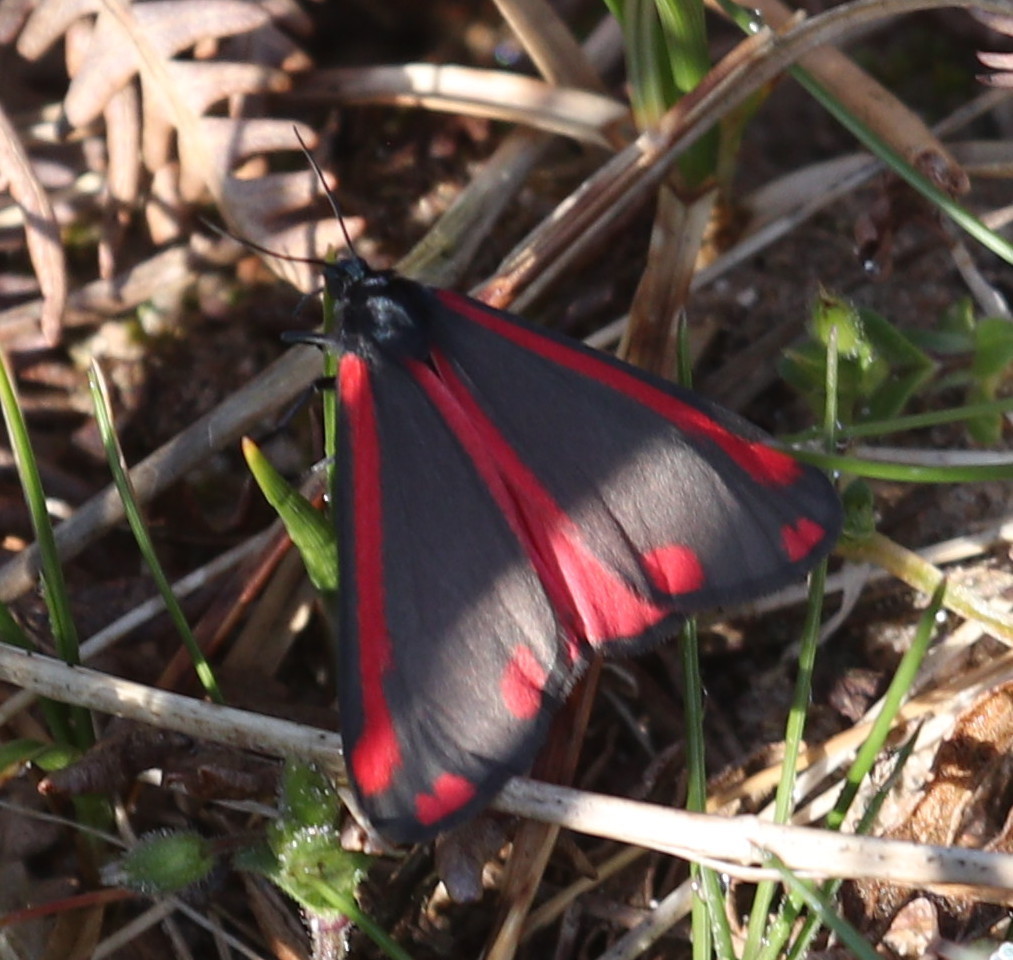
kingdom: Animalia
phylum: Arthropoda
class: Insecta
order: Lepidoptera
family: Erebidae
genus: Tyria
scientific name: Tyria jacobaeae
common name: Cinnabar
